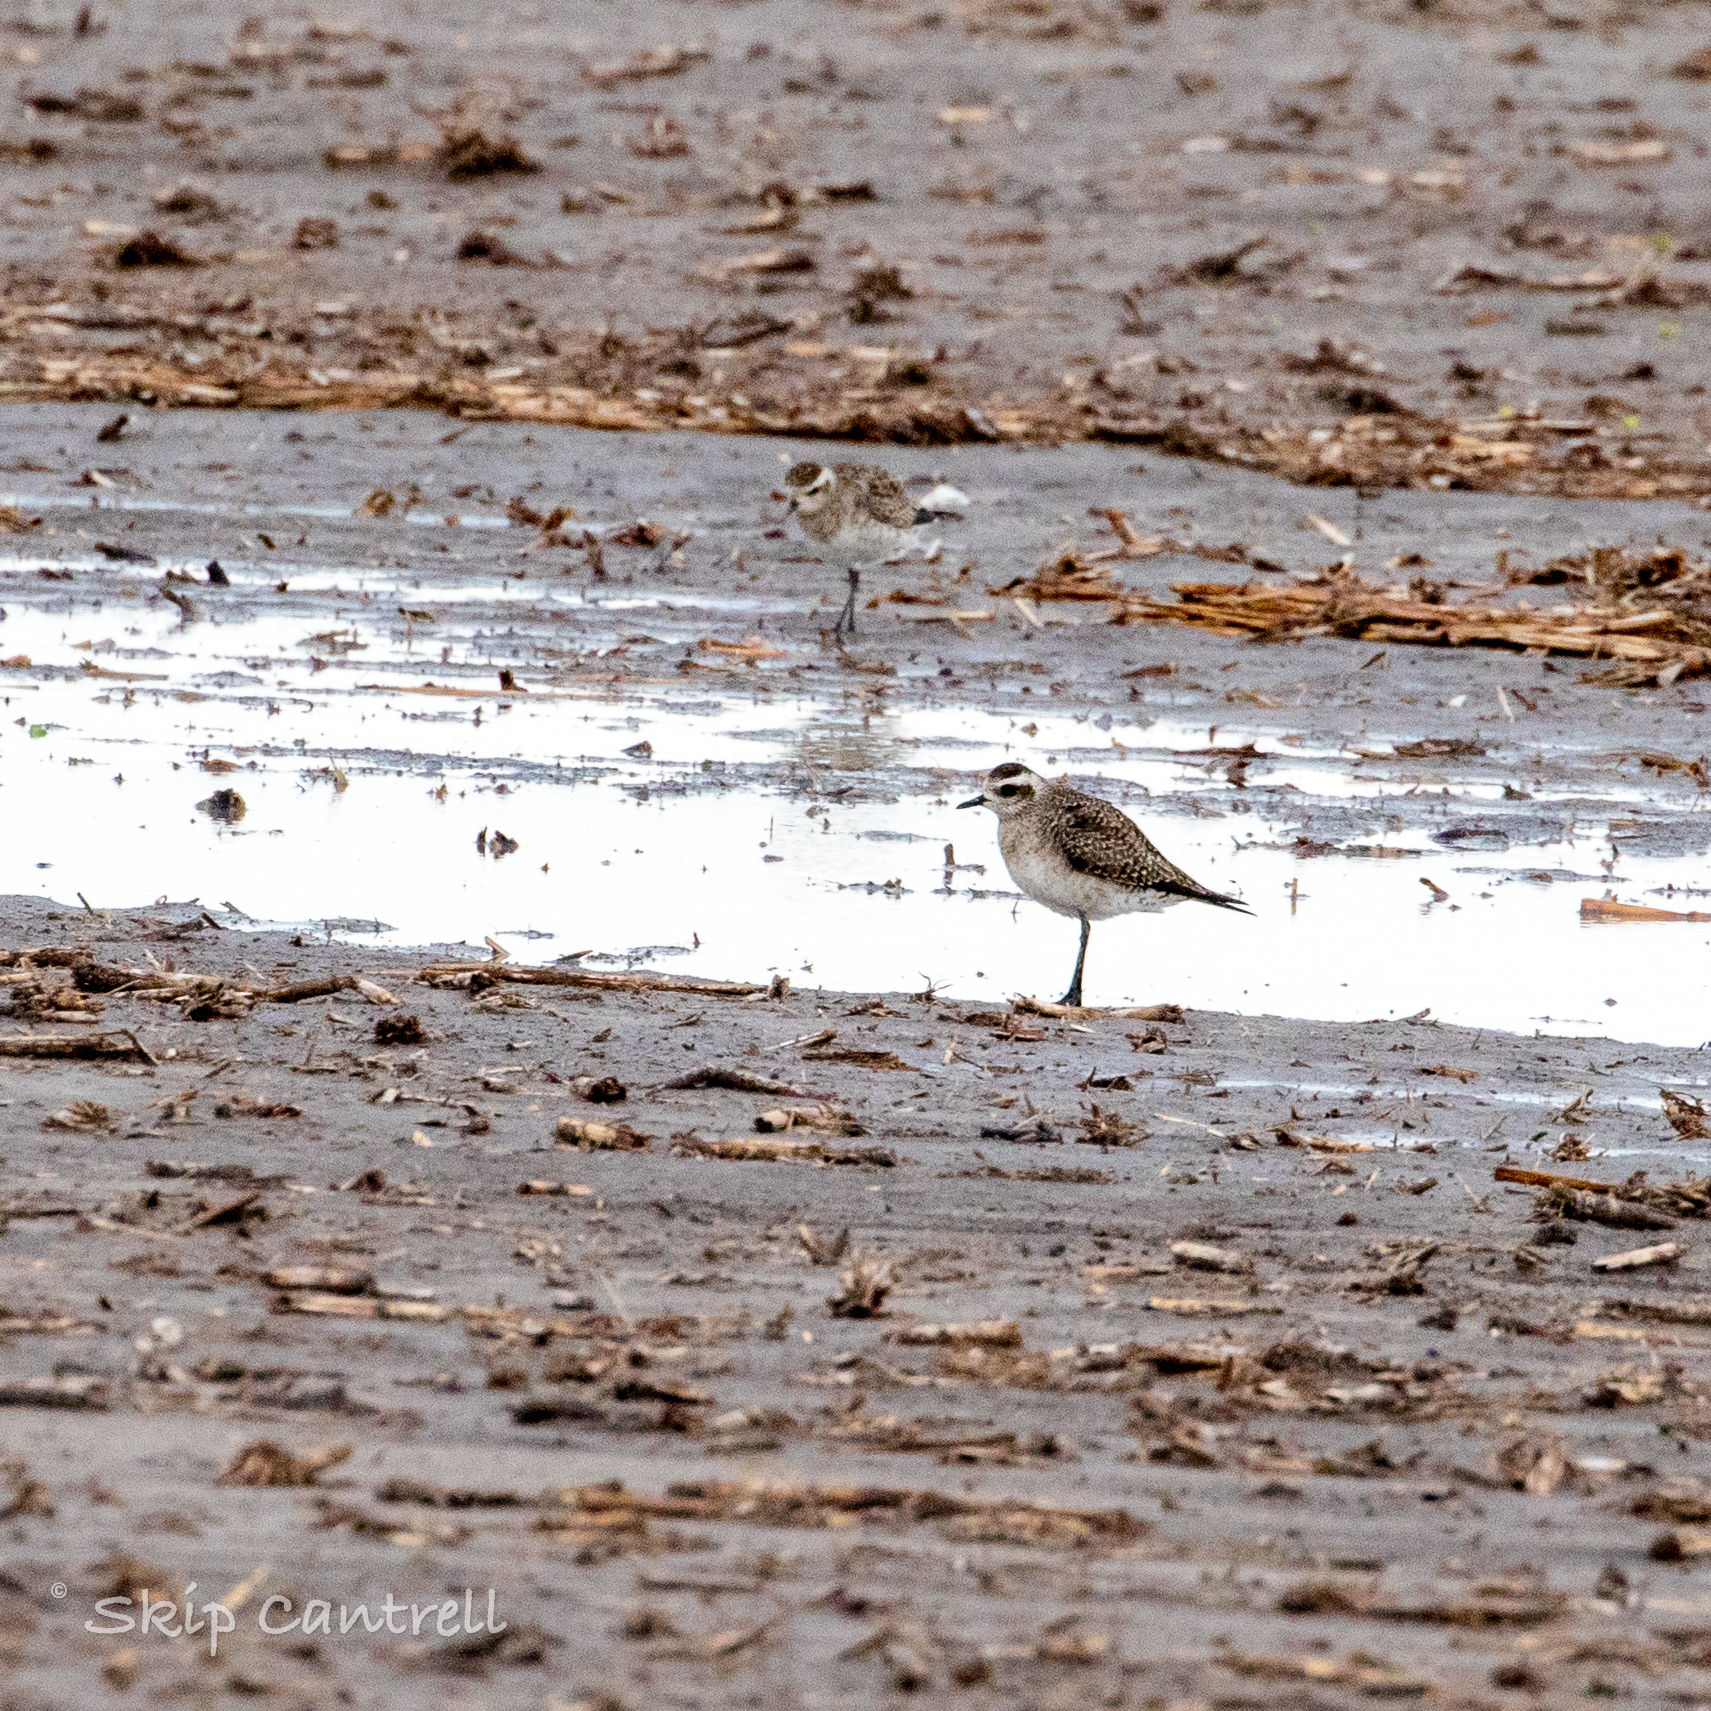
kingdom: Animalia
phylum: Chordata
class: Aves
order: Charadriiformes
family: Charadriidae
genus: Pluvialis
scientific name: Pluvialis dominica
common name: American golden plover
